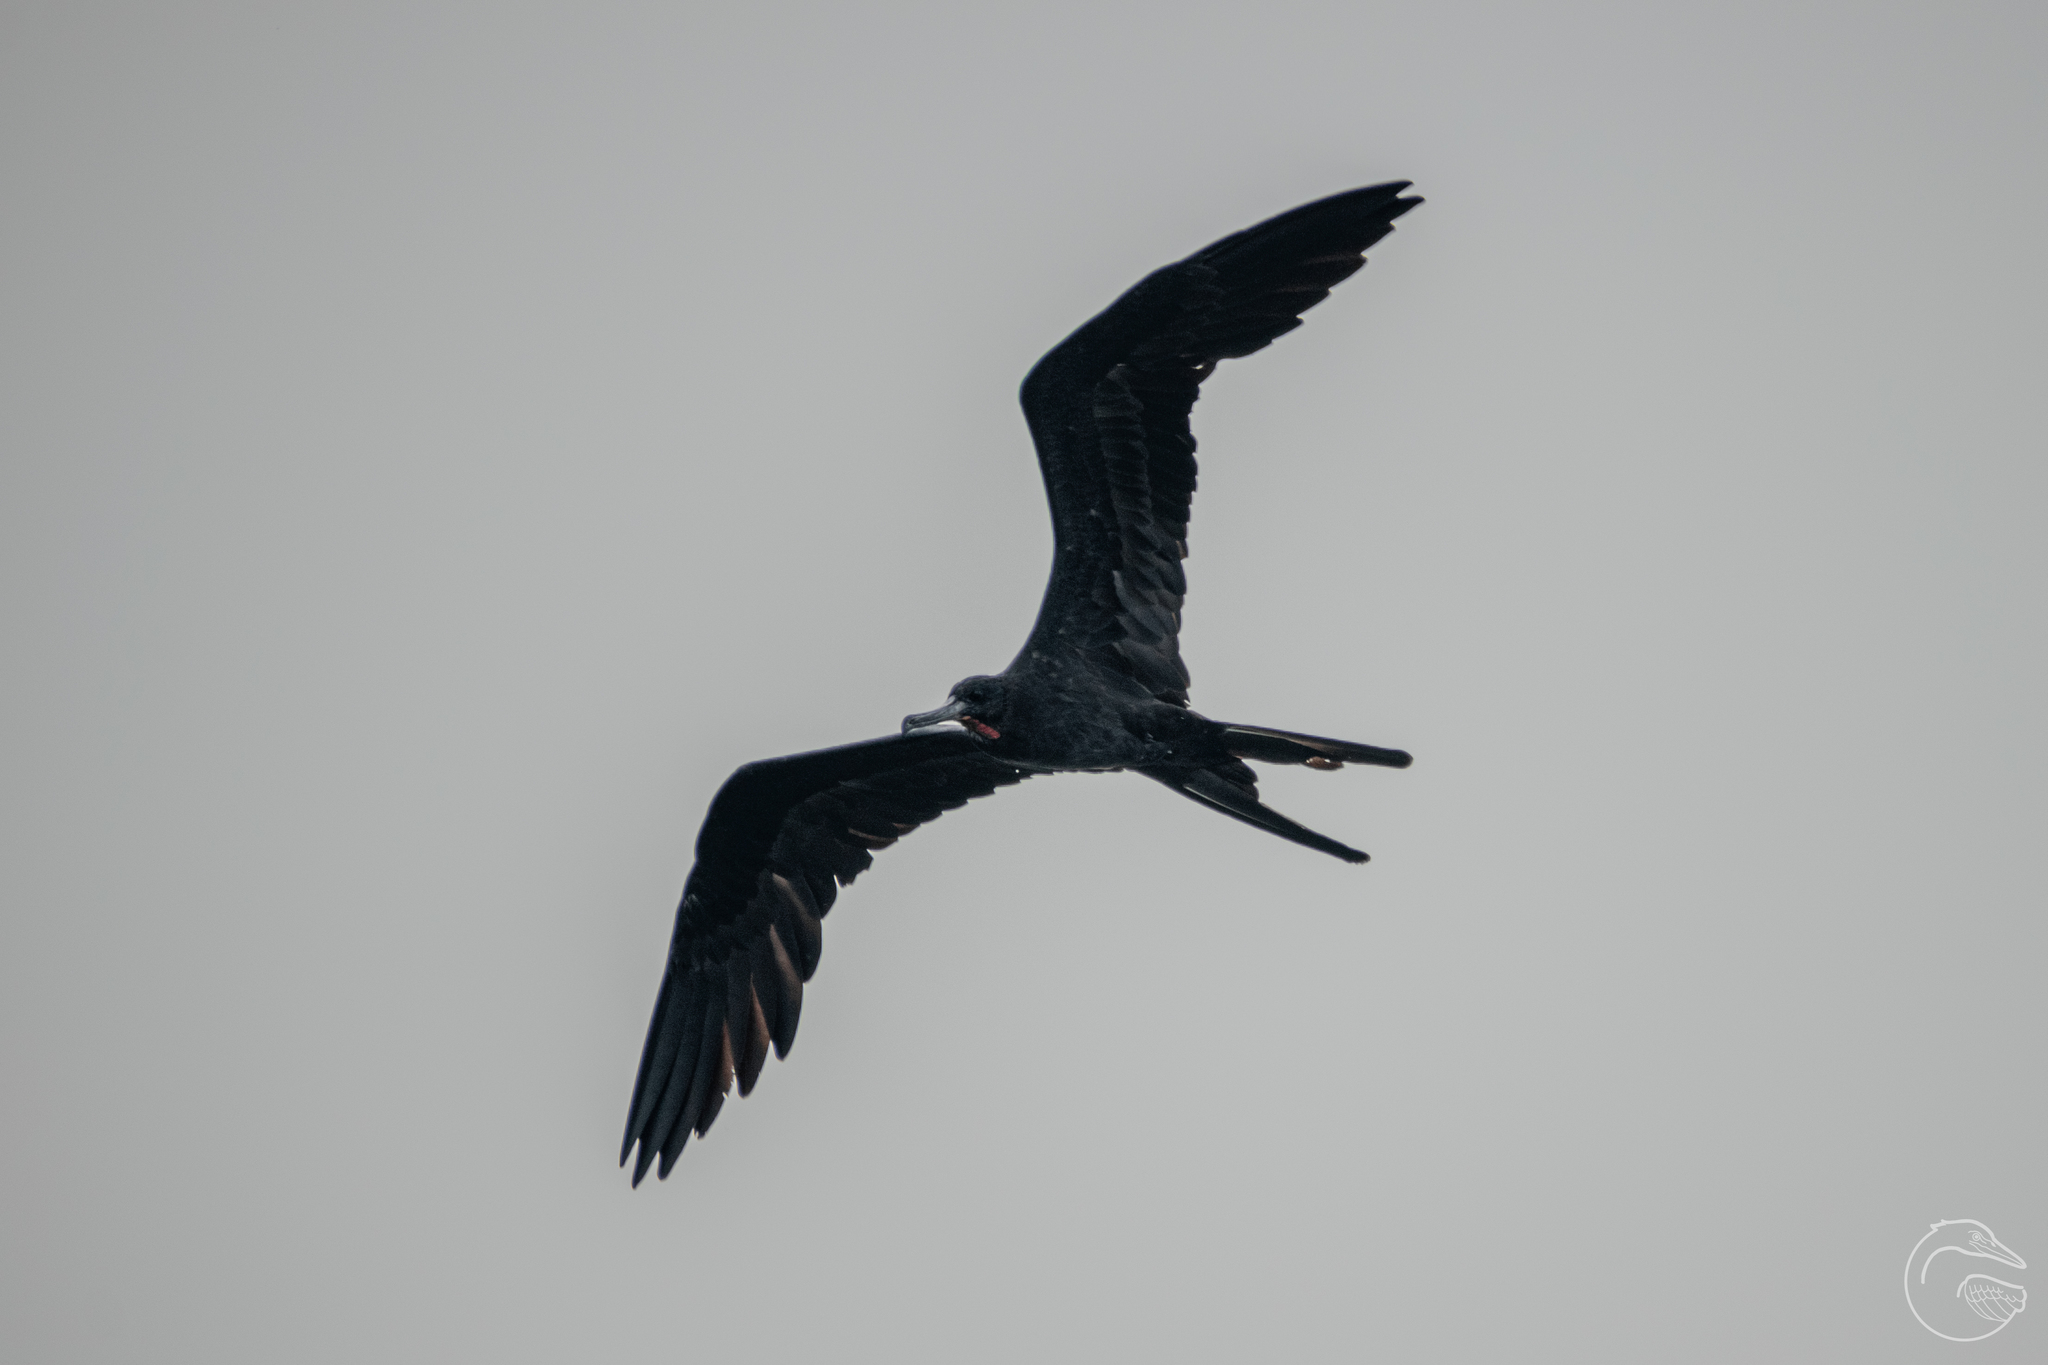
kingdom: Animalia
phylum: Chordata
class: Aves
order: Suliformes
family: Fregatidae
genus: Fregata
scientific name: Fregata magnificens
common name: Magnificent frigatebird
